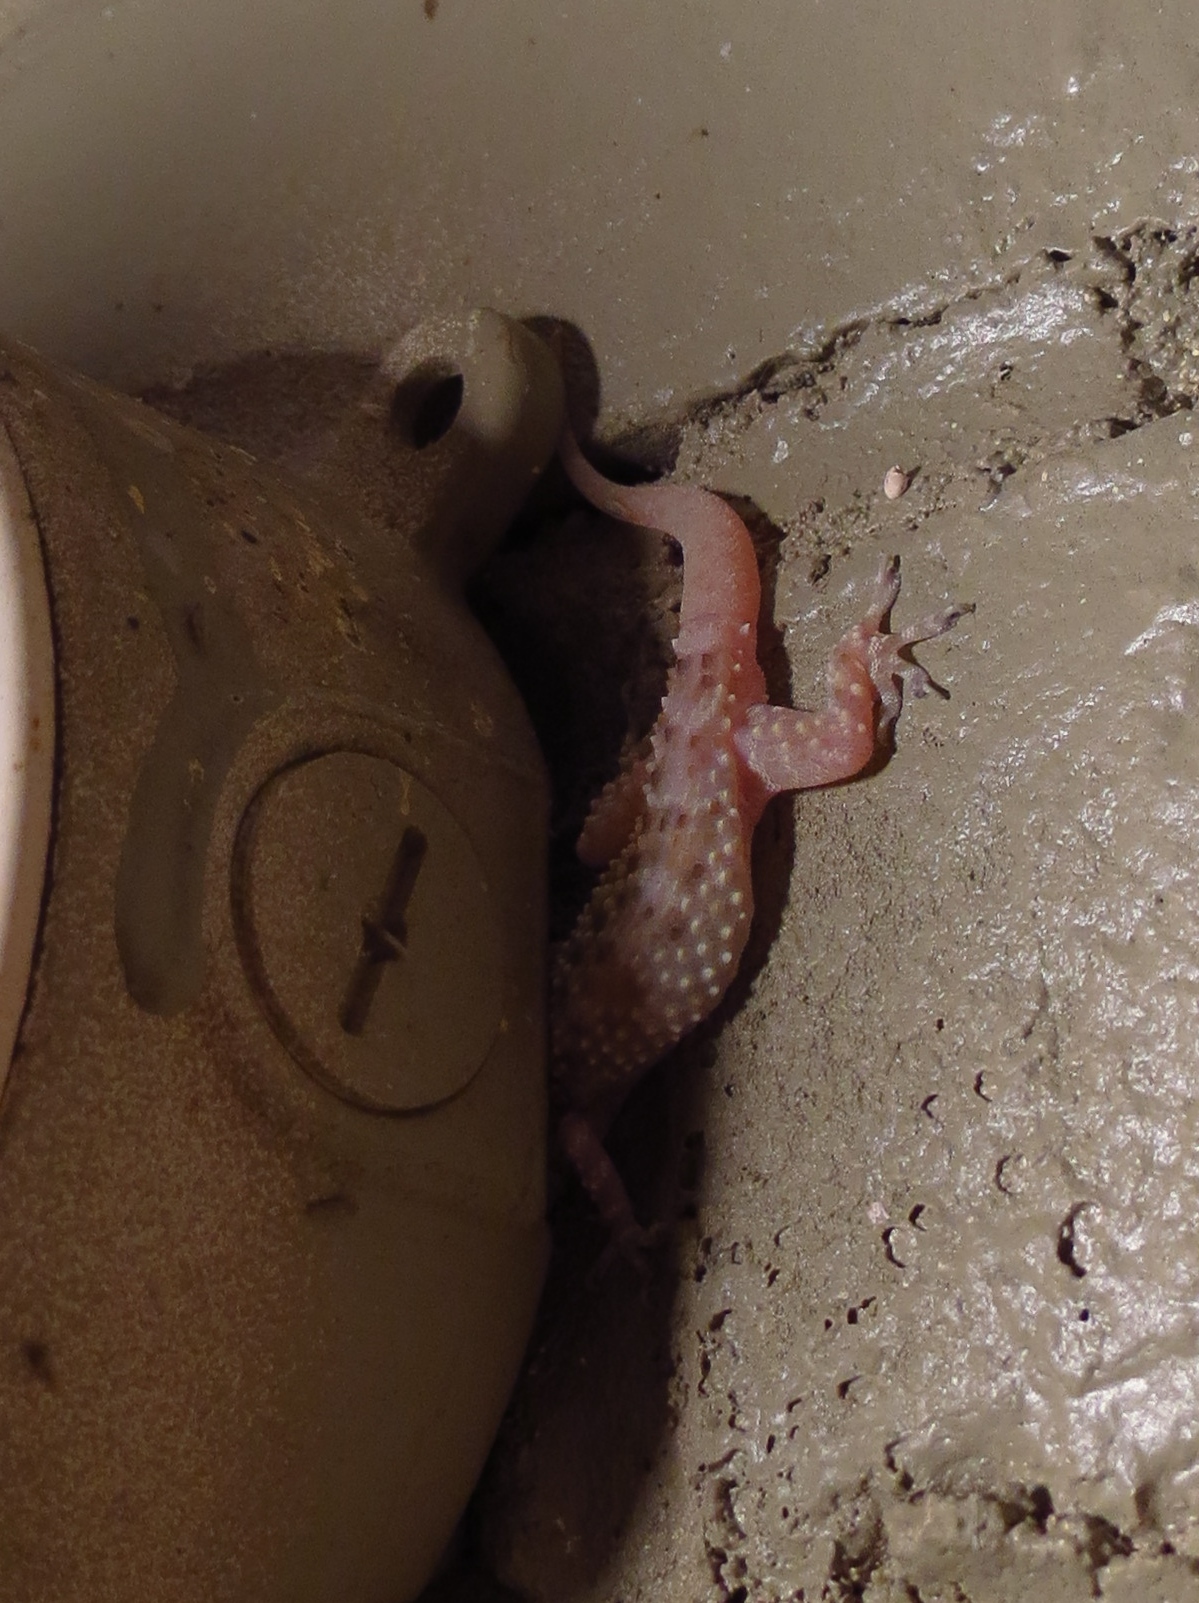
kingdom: Animalia
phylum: Chordata
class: Squamata
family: Gekkonidae
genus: Hemidactylus
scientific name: Hemidactylus turcicus
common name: Turkish gecko
